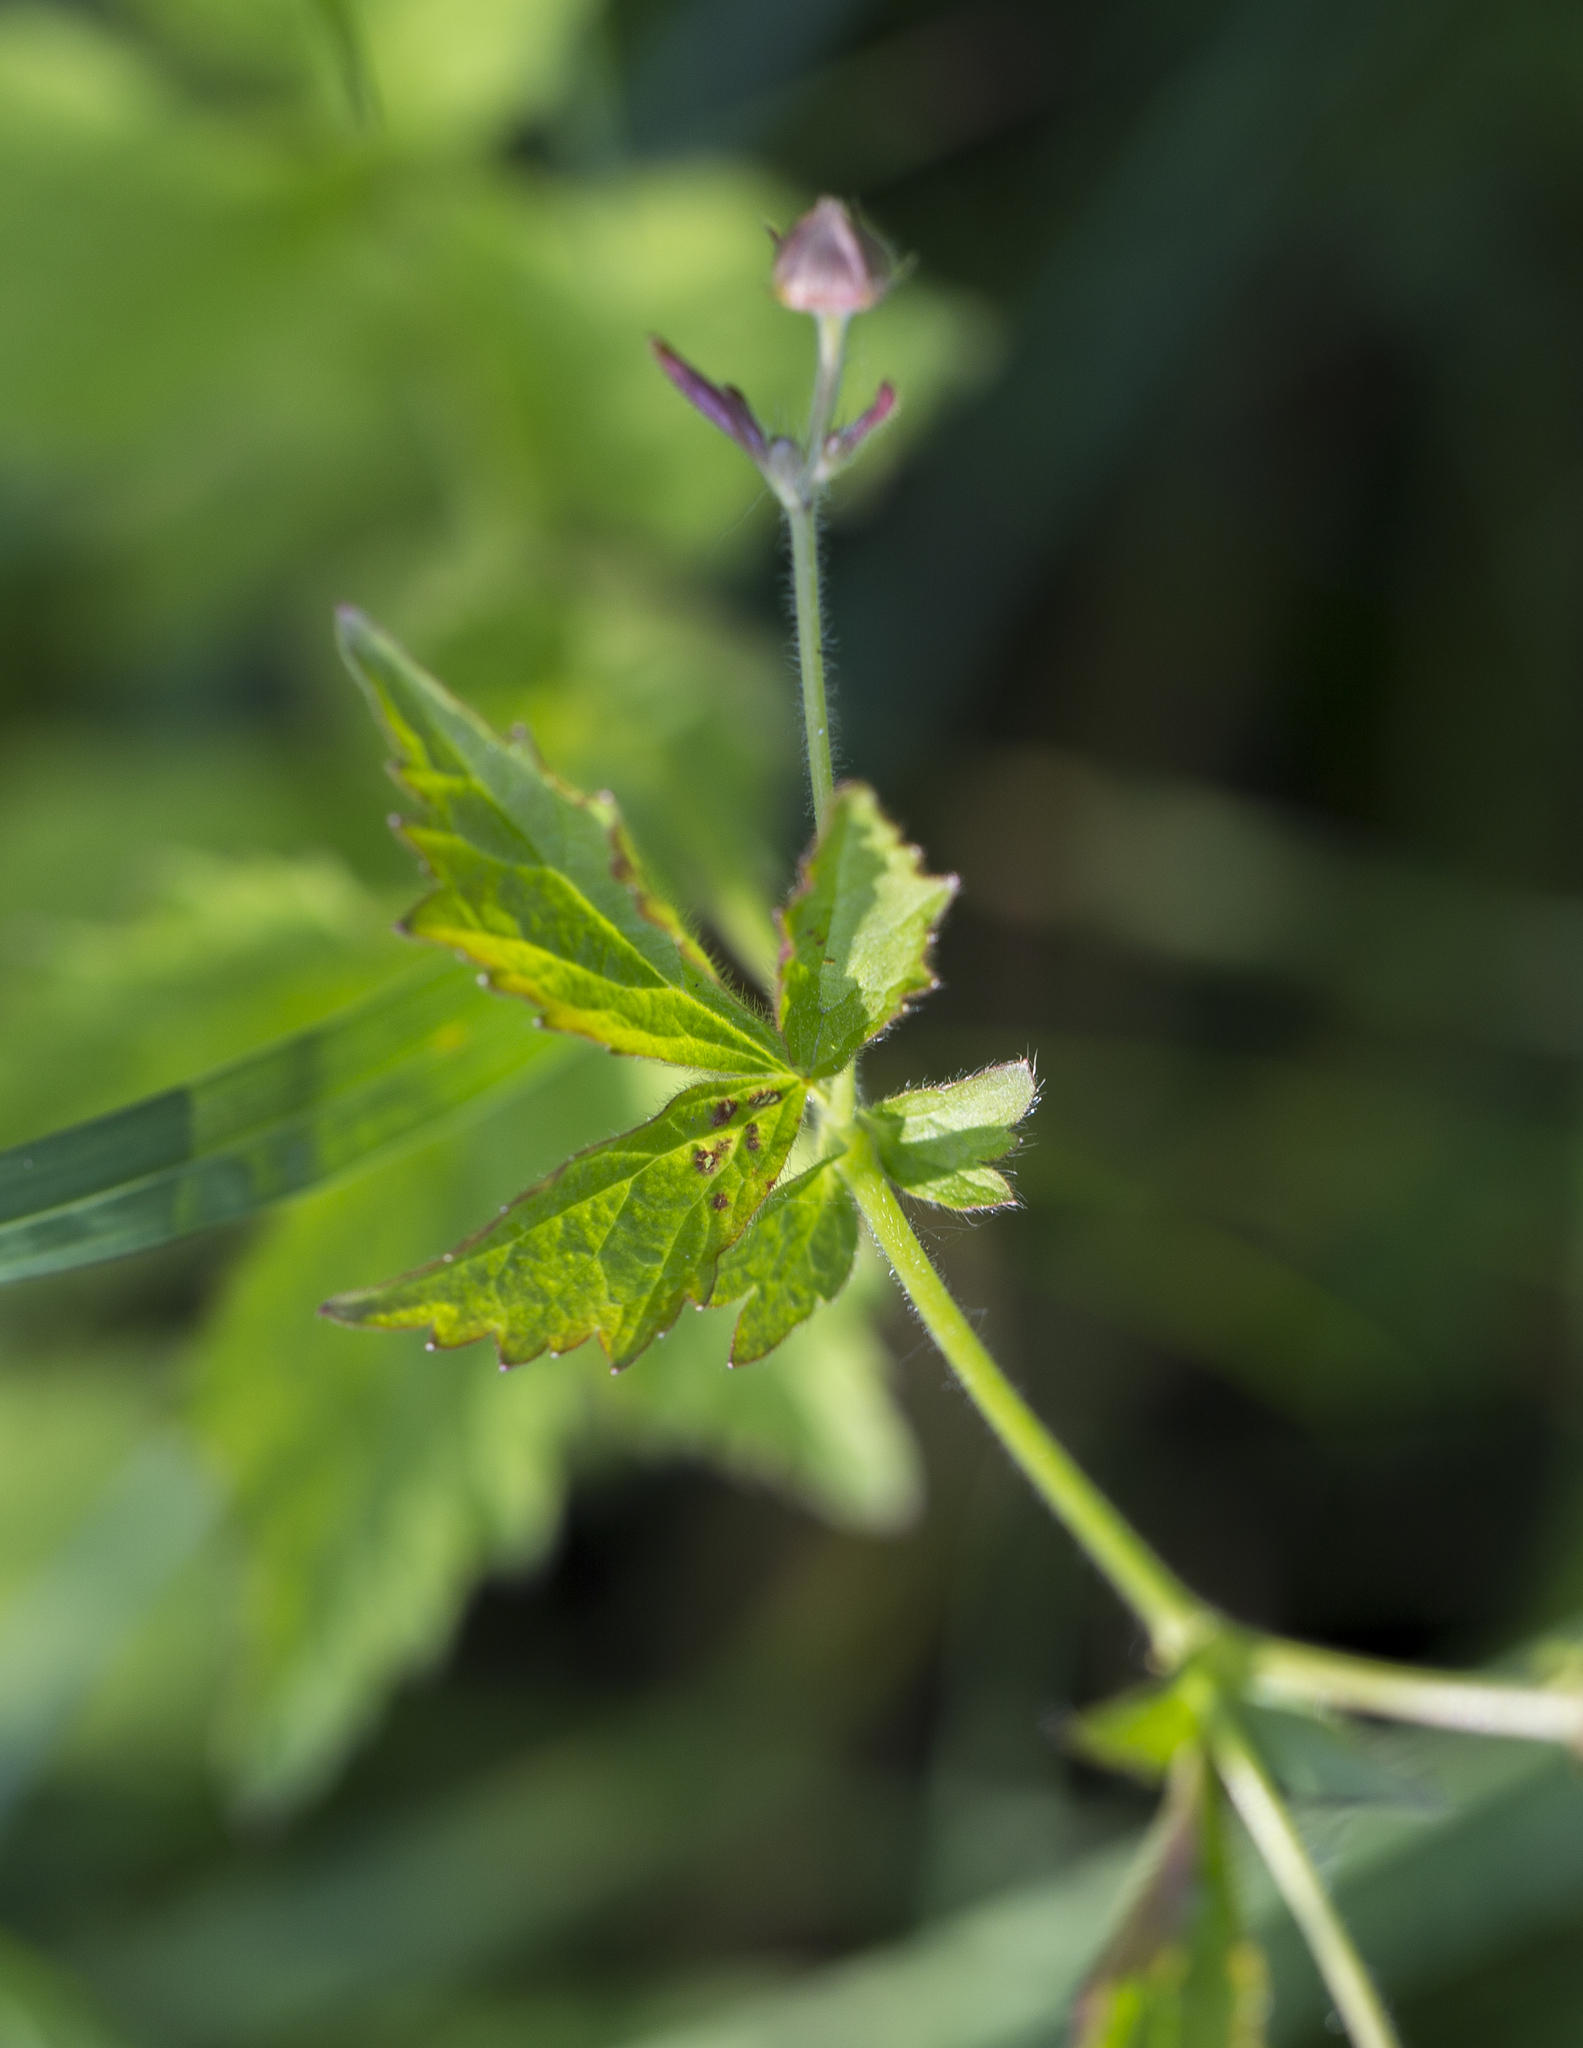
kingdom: Plantae
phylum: Tracheophyta
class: Magnoliopsida
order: Rosales
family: Rosaceae
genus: Geum
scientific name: Geum urbanum
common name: Wood avens
